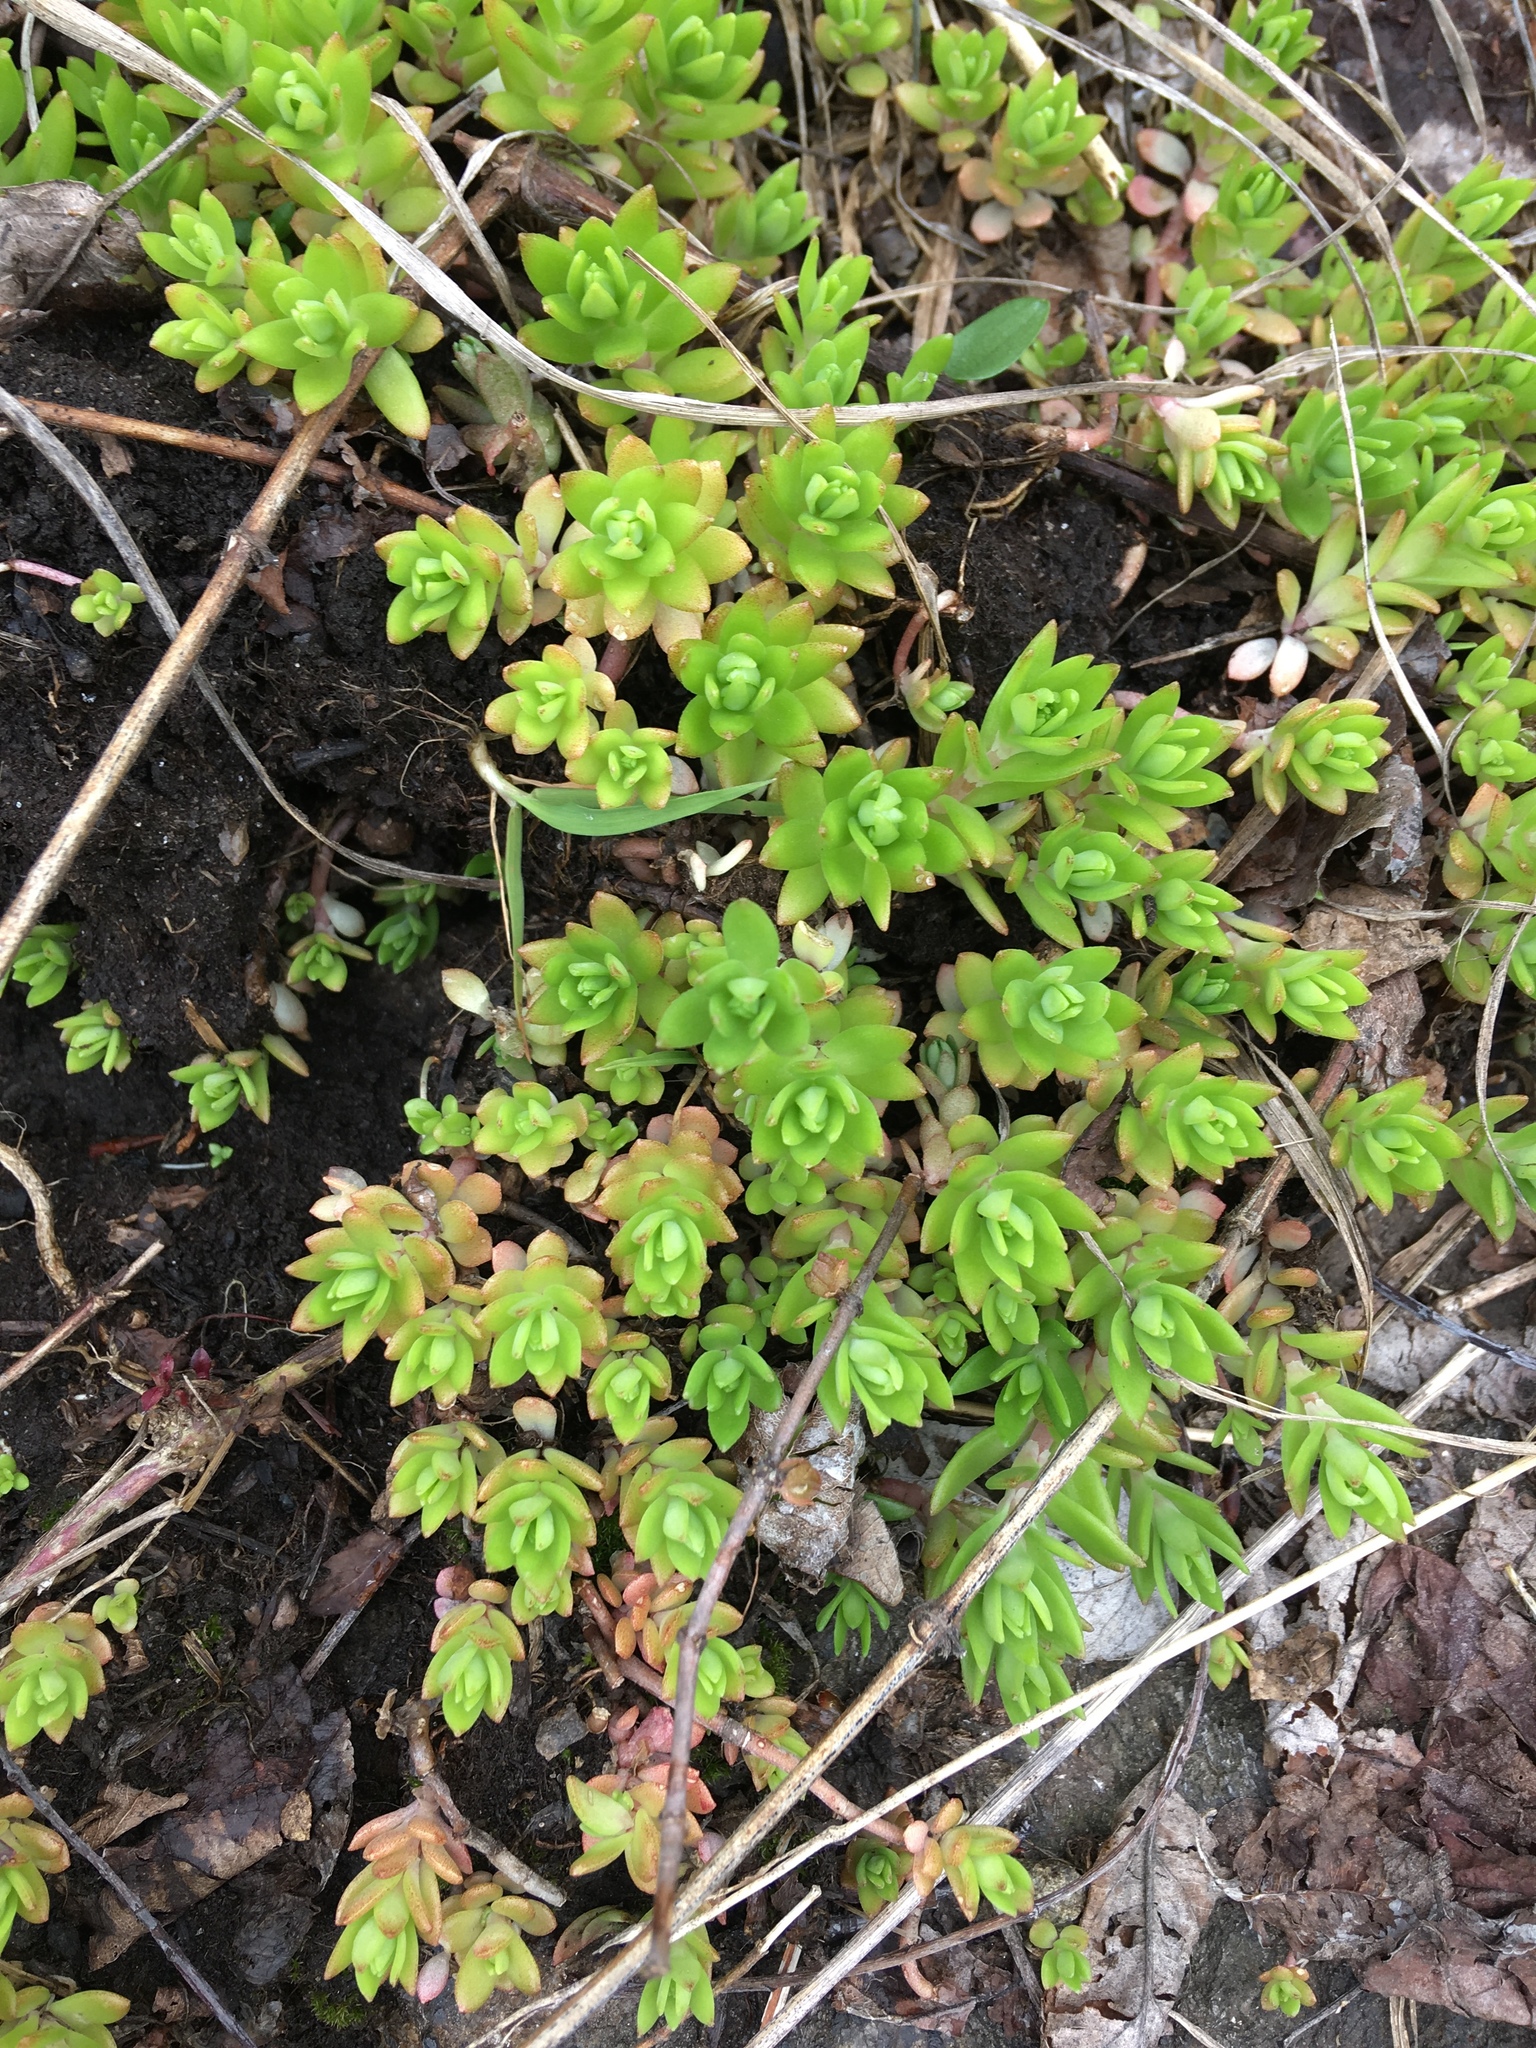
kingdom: Plantae
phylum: Tracheophyta
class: Magnoliopsida
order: Saxifragales
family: Crassulaceae
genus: Sedum
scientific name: Sedum sarmentosum
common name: Stringy stonecrop
